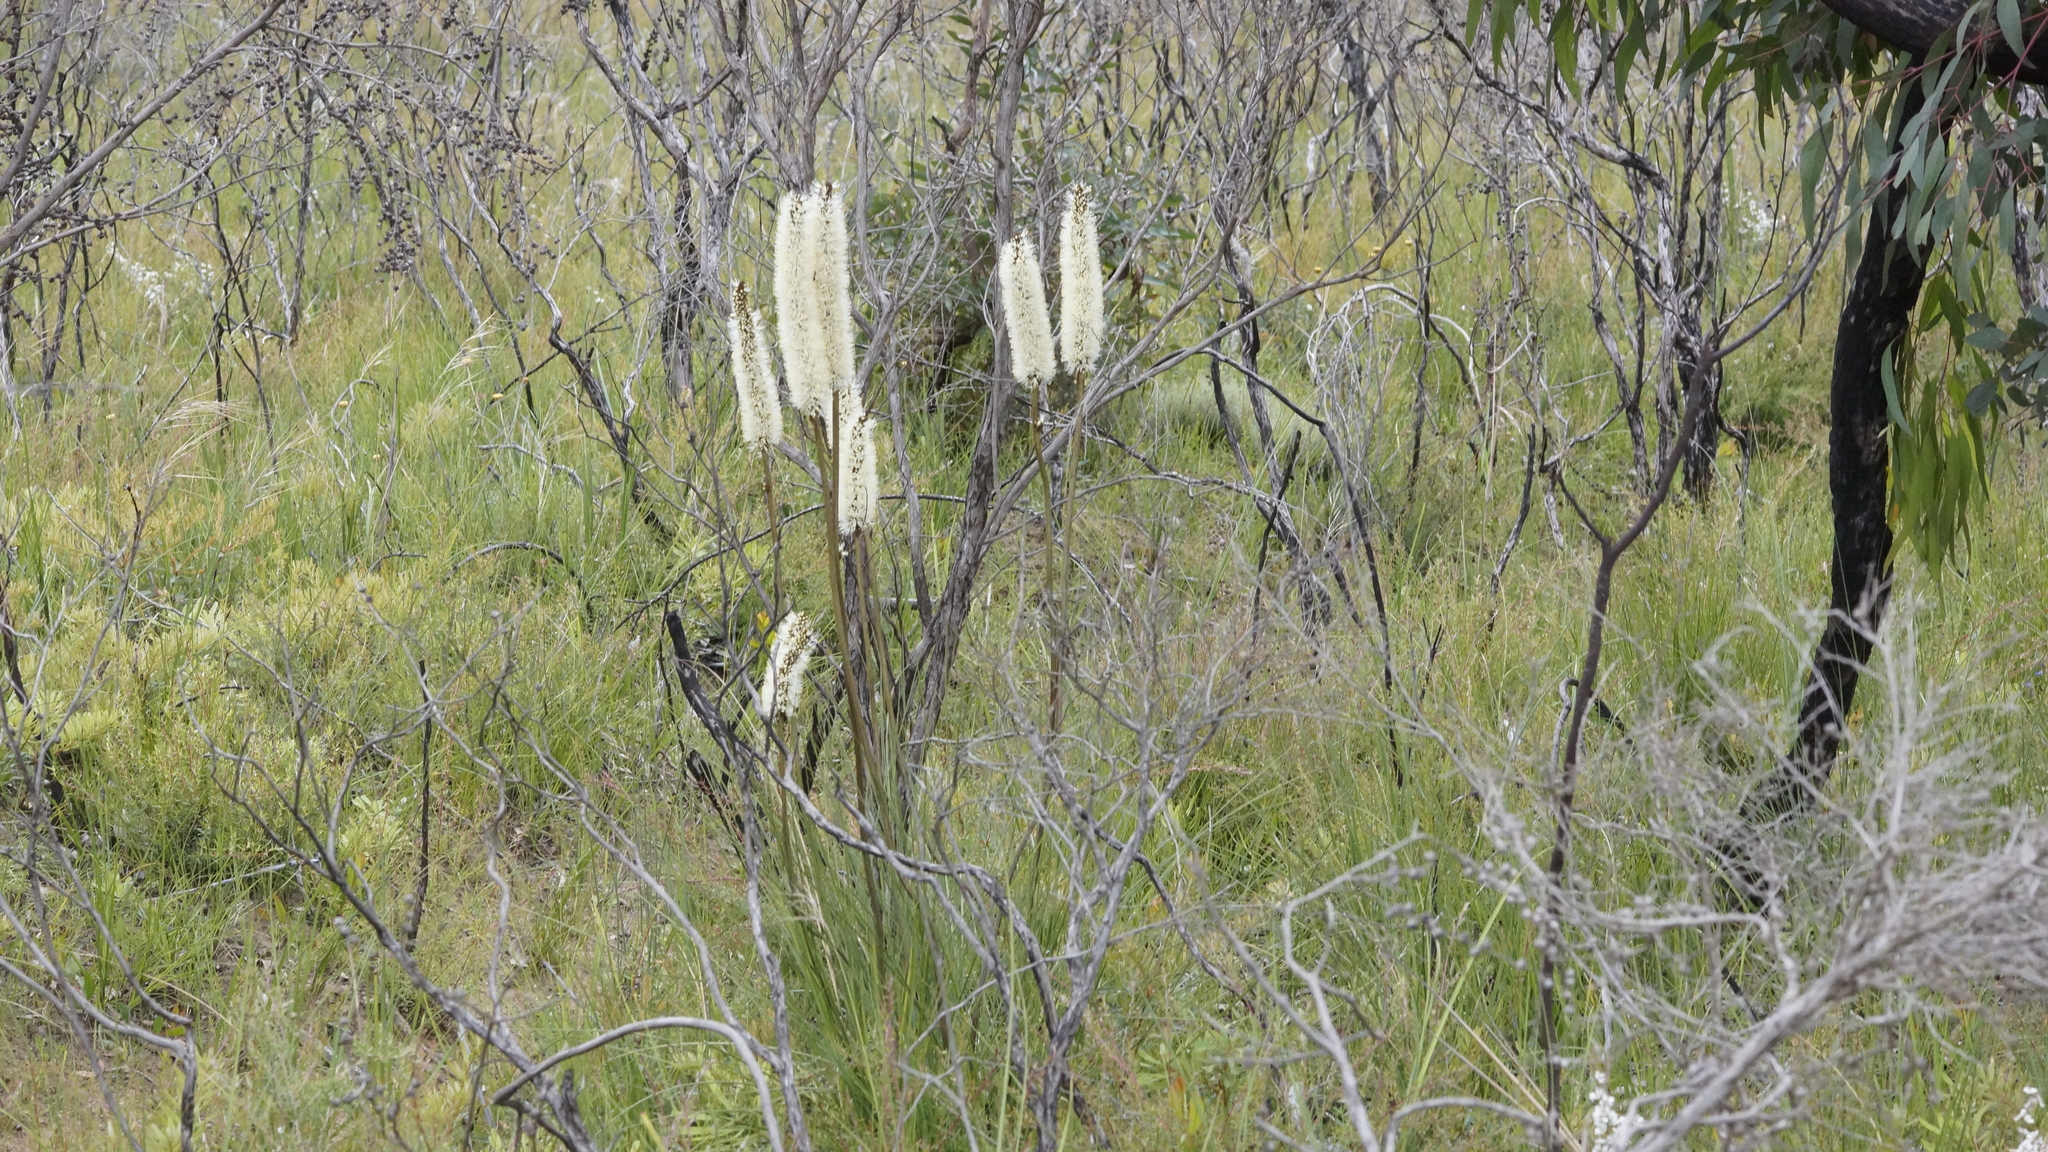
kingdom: Plantae
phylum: Tracheophyta
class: Liliopsida
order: Asparagales
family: Asphodelaceae
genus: Xanthorrhoea
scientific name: Xanthorrhoea minor
